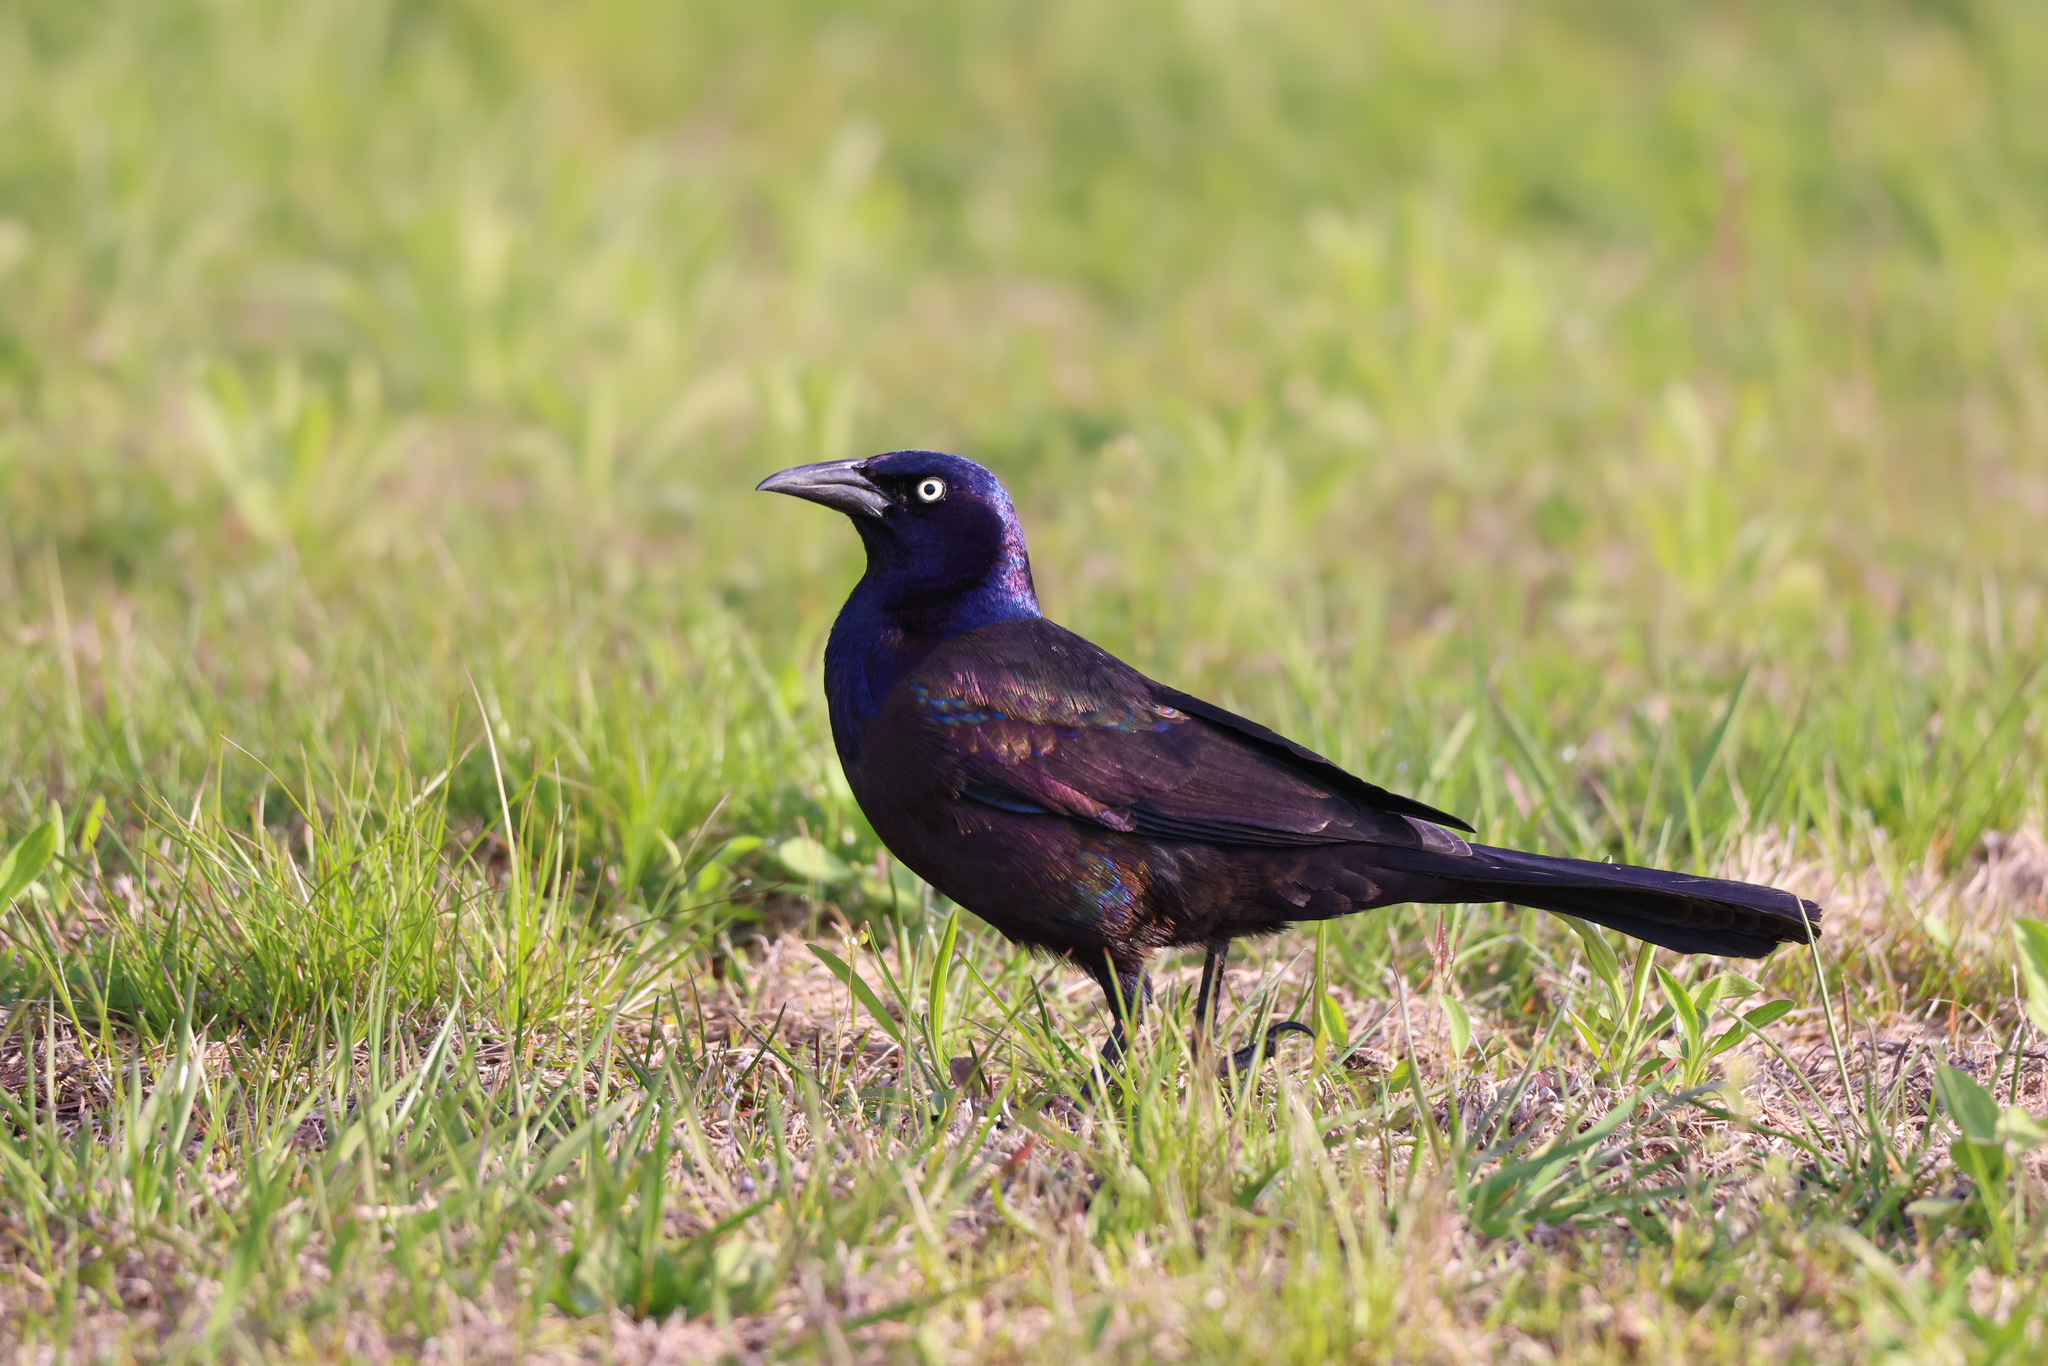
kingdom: Animalia
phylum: Chordata
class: Aves
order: Passeriformes
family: Icteridae
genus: Quiscalus
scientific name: Quiscalus quiscula
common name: Common grackle
